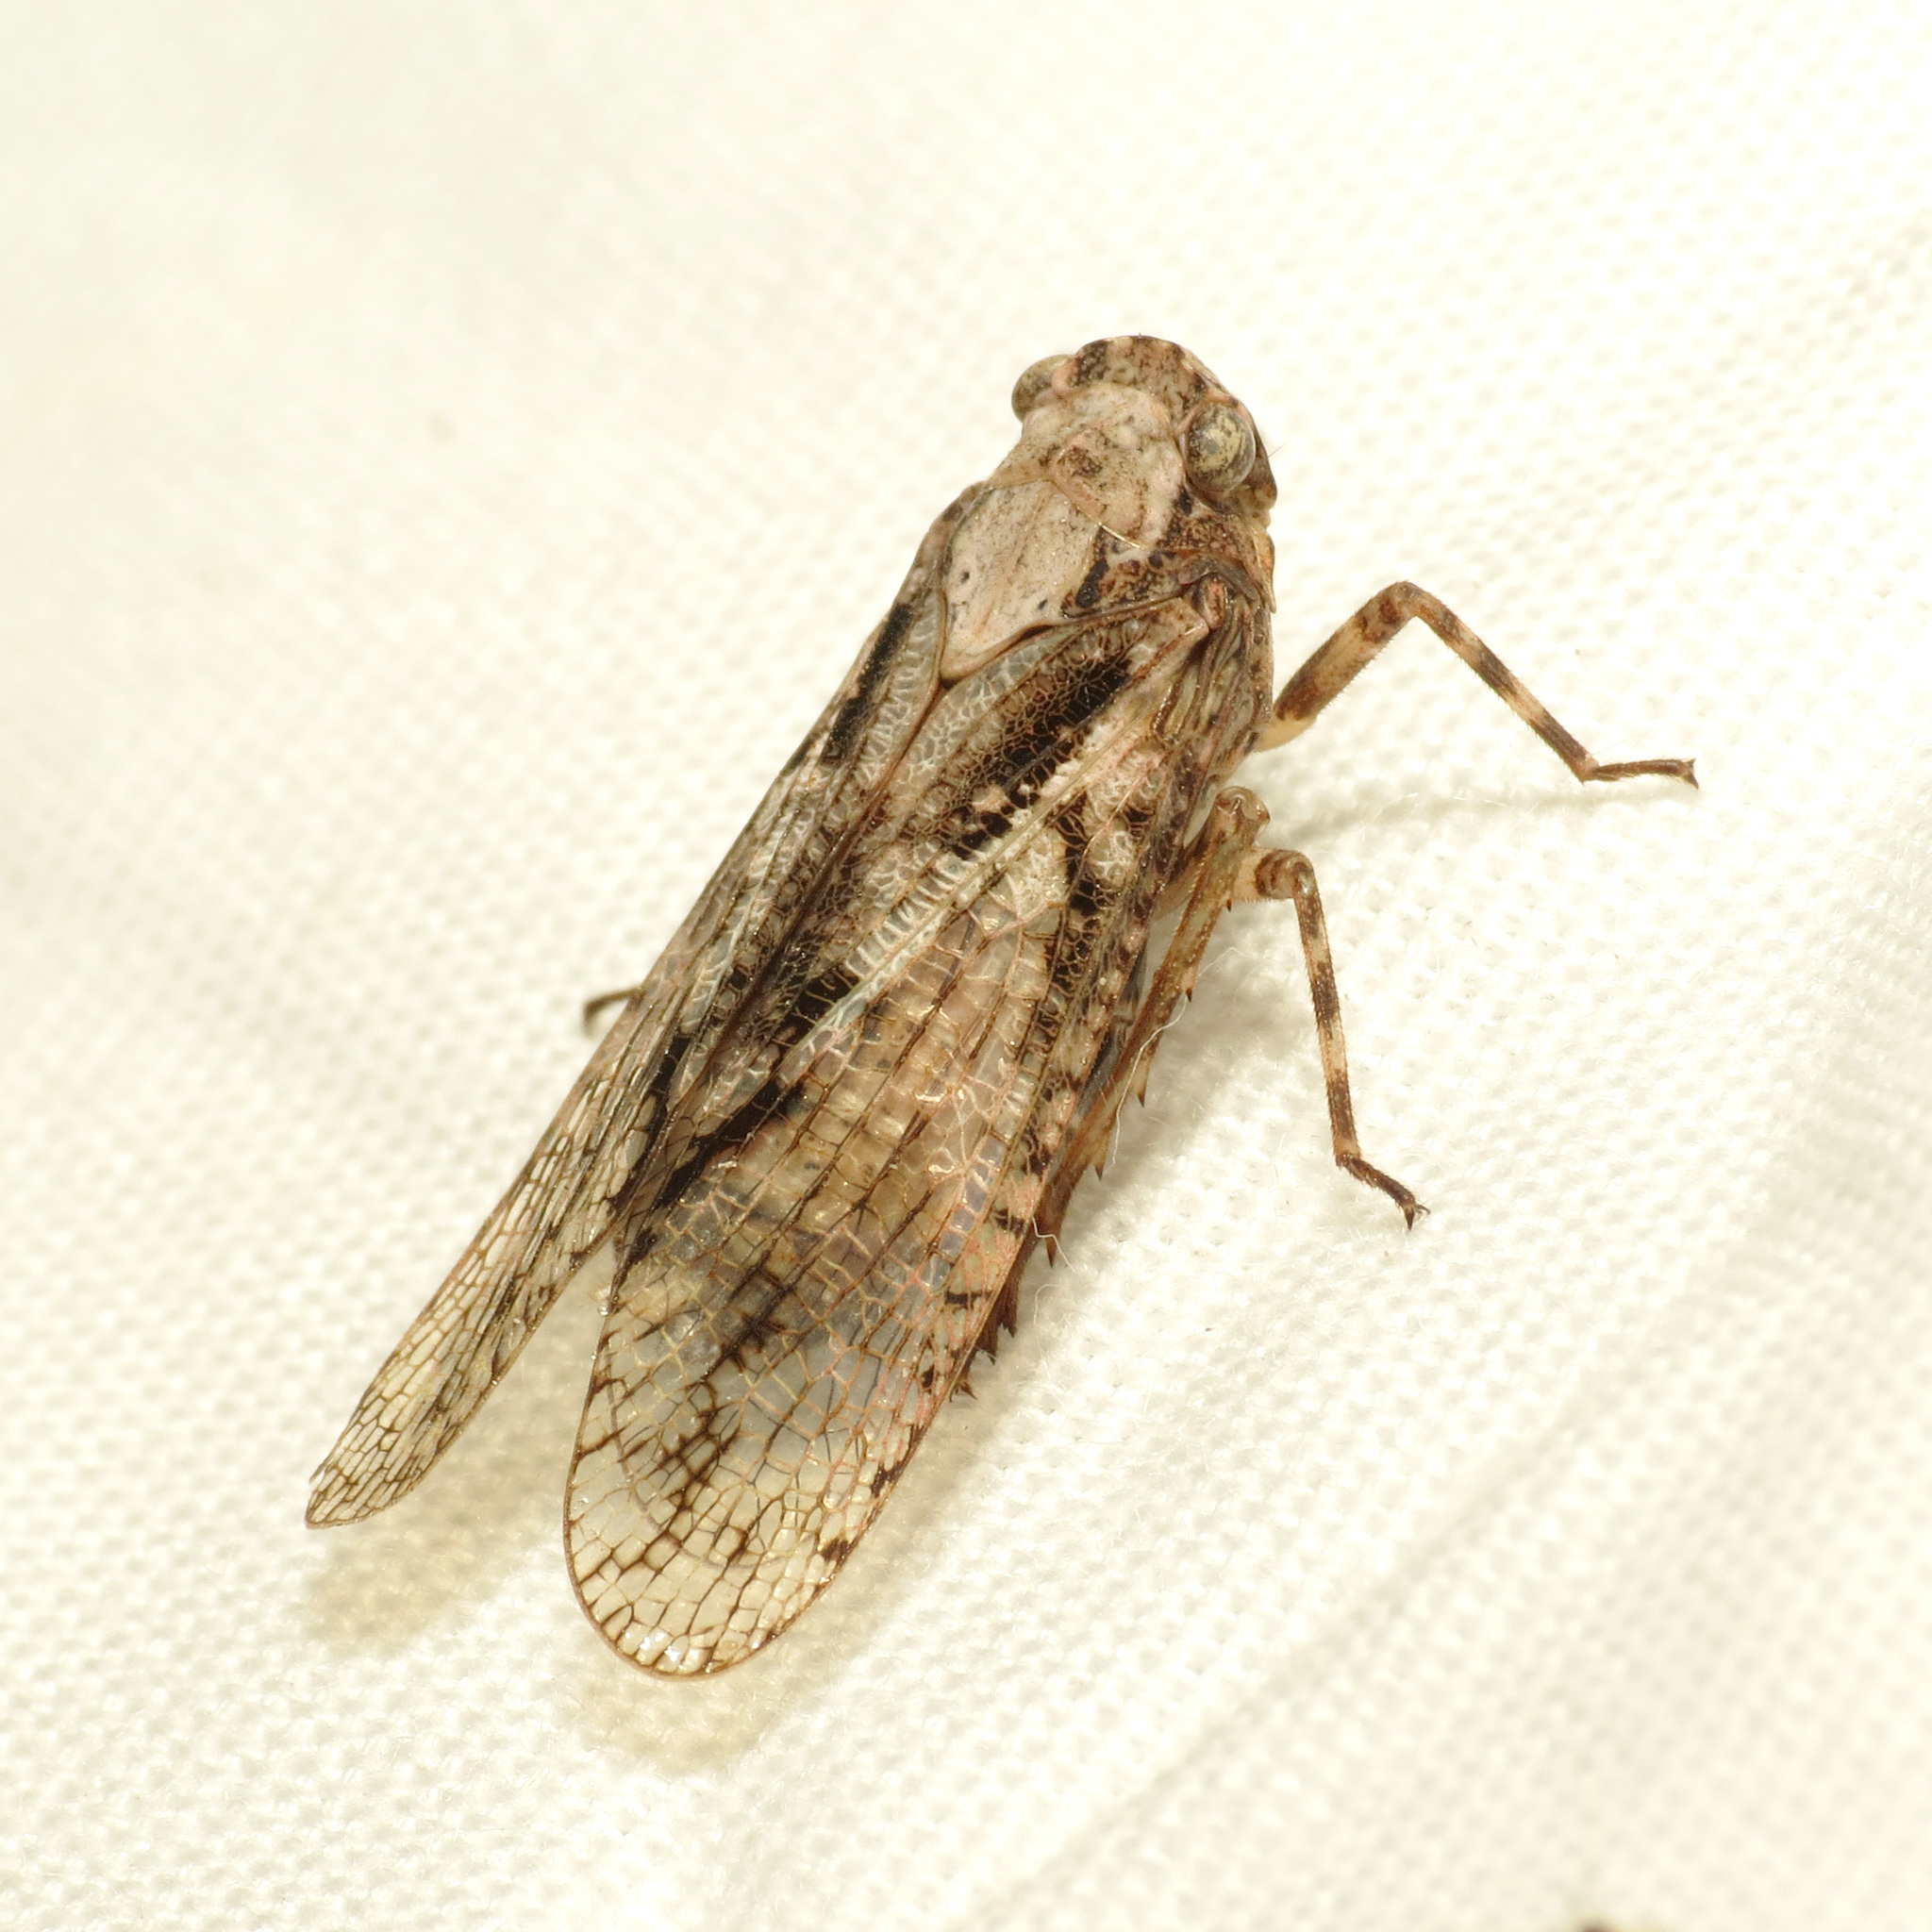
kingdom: Animalia
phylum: Arthropoda
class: Insecta
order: Hemiptera
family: Fulgoridae
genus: Alphina
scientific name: Alphina glauca
